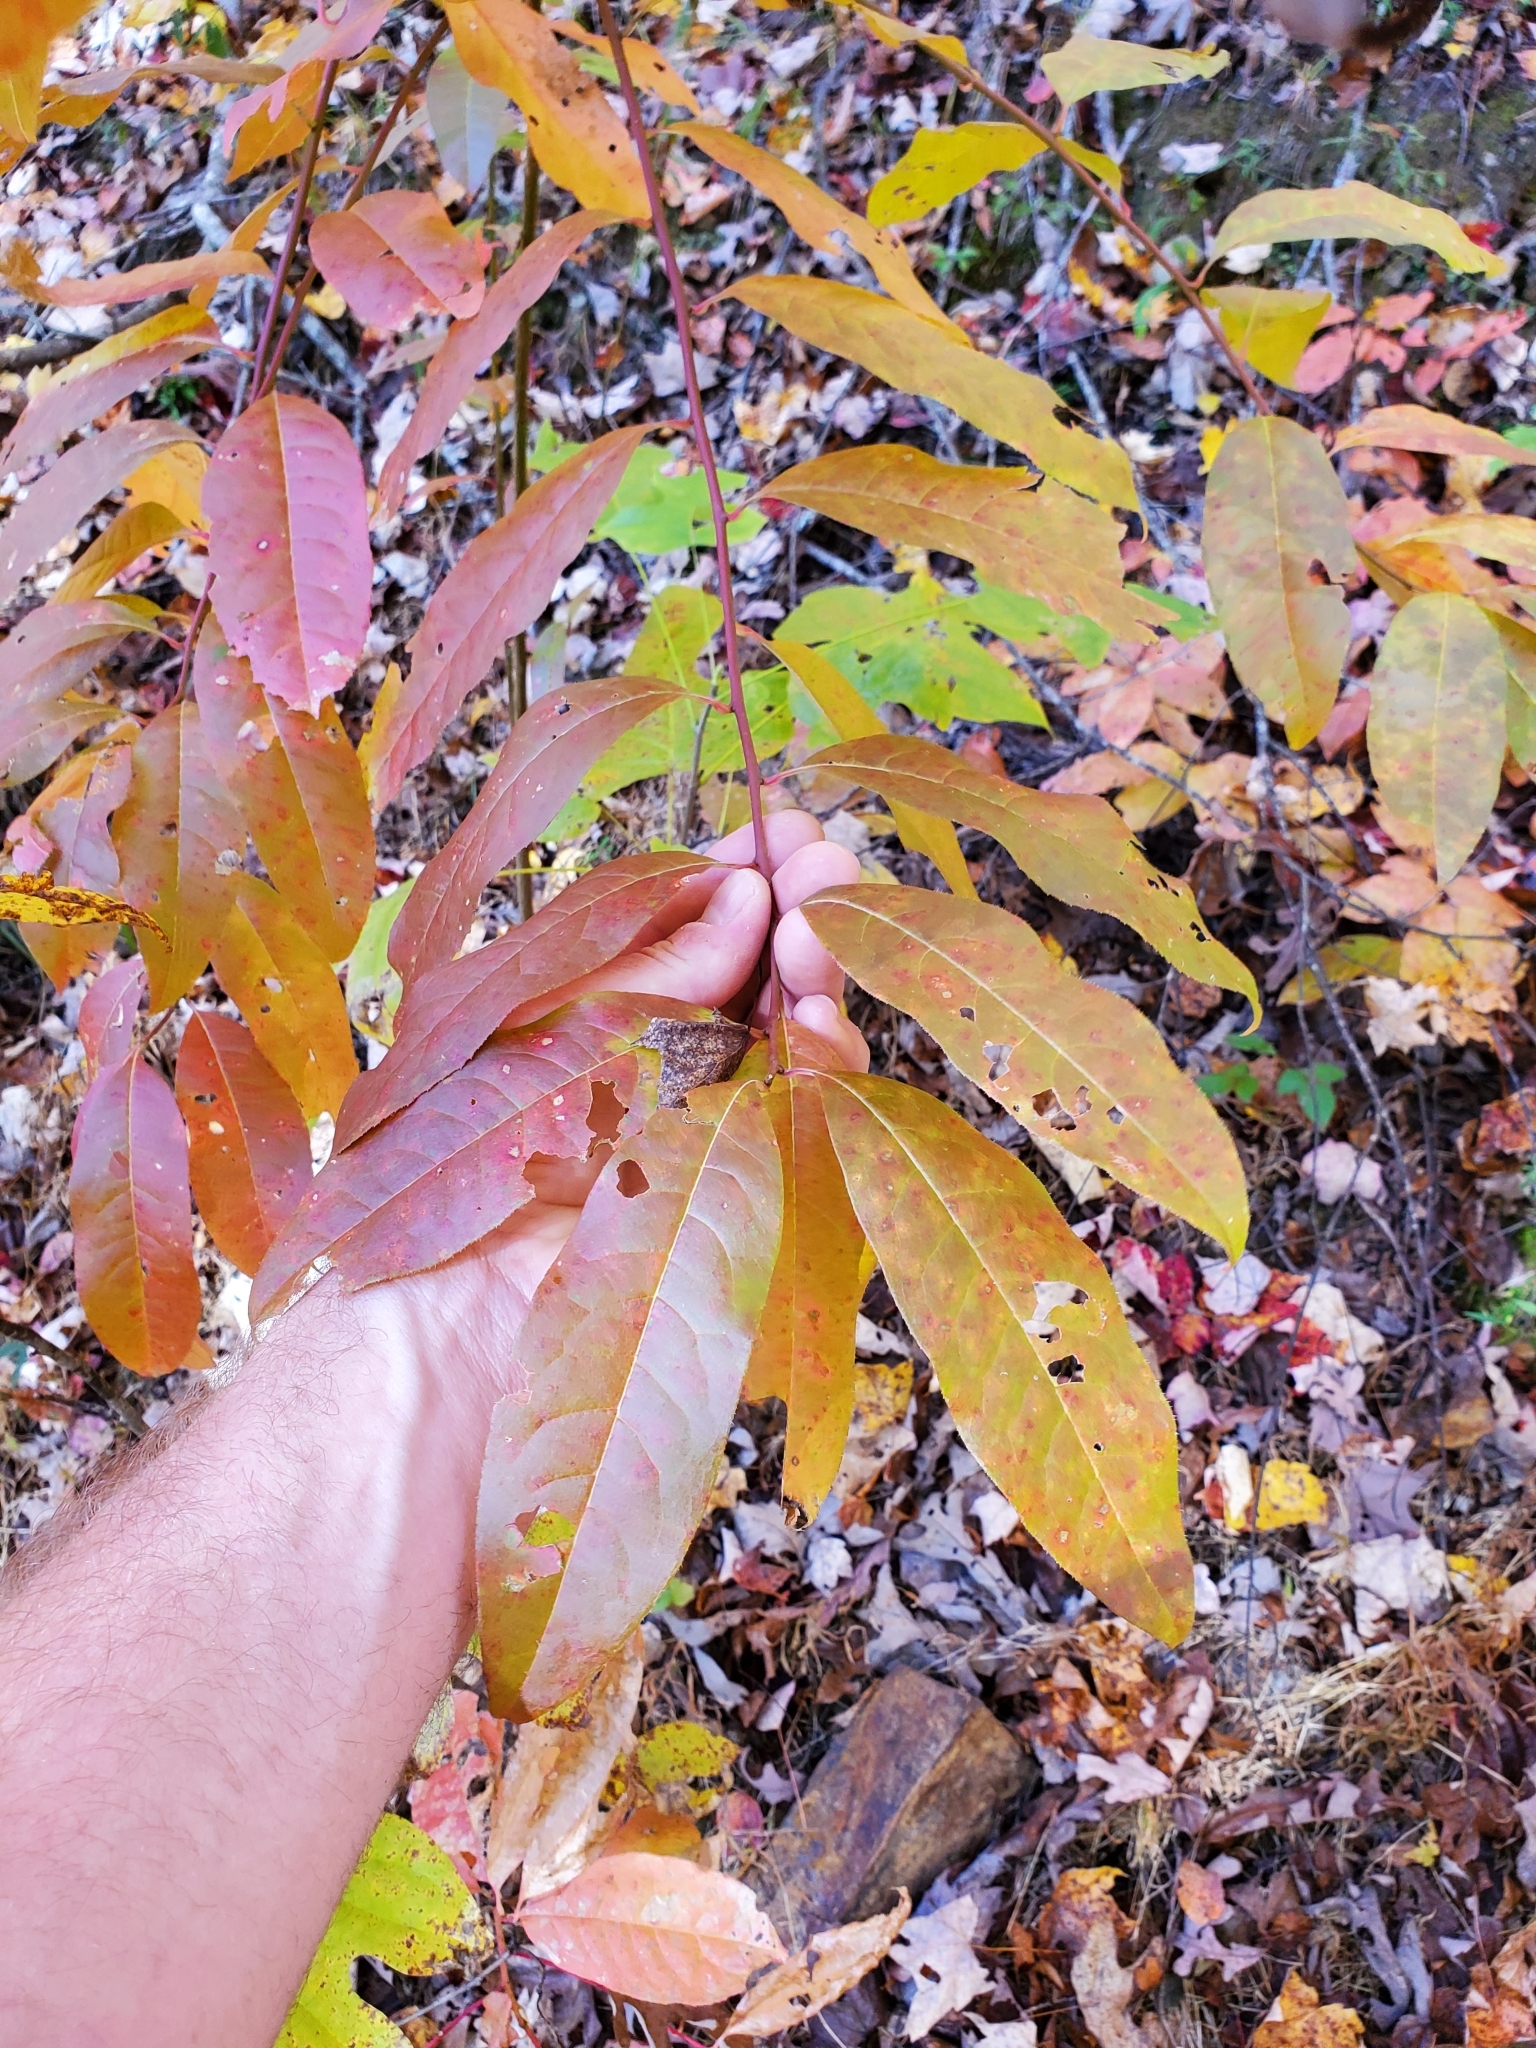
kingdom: Plantae
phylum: Tracheophyta
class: Magnoliopsida
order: Ericales
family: Ericaceae
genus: Oxydendrum
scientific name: Oxydendrum arboreum
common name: Sourwood
